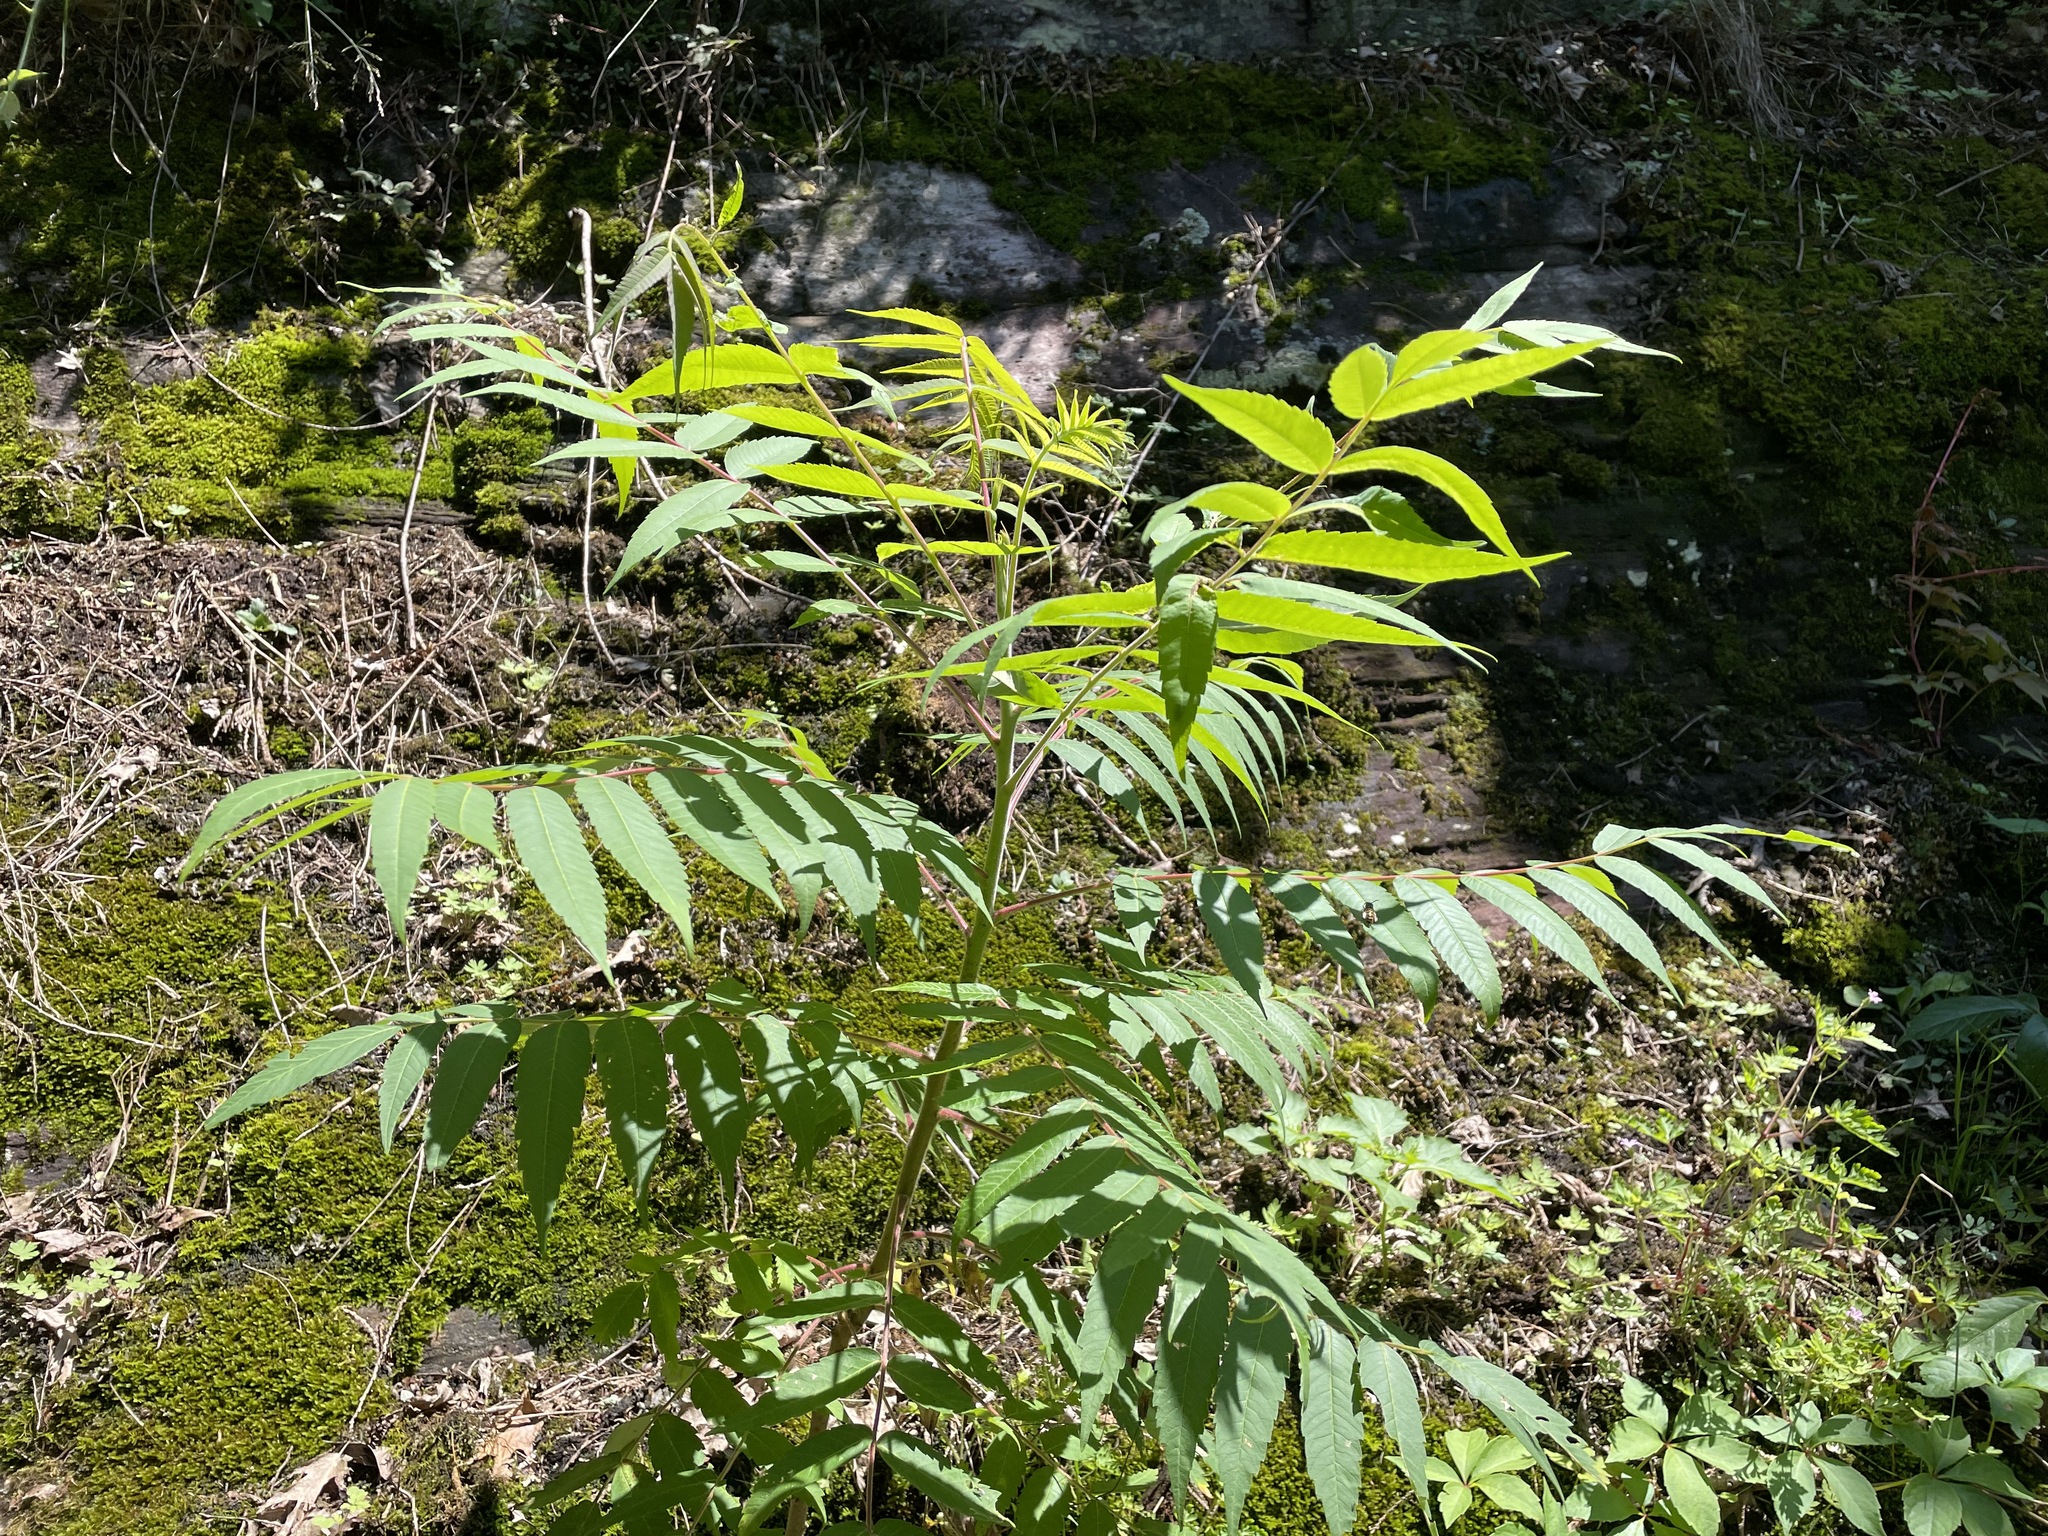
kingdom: Plantae
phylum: Tracheophyta
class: Magnoliopsida
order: Sapindales
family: Anacardiaceae
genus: Rhus
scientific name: Rhus typhina
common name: Staghorn sumac
